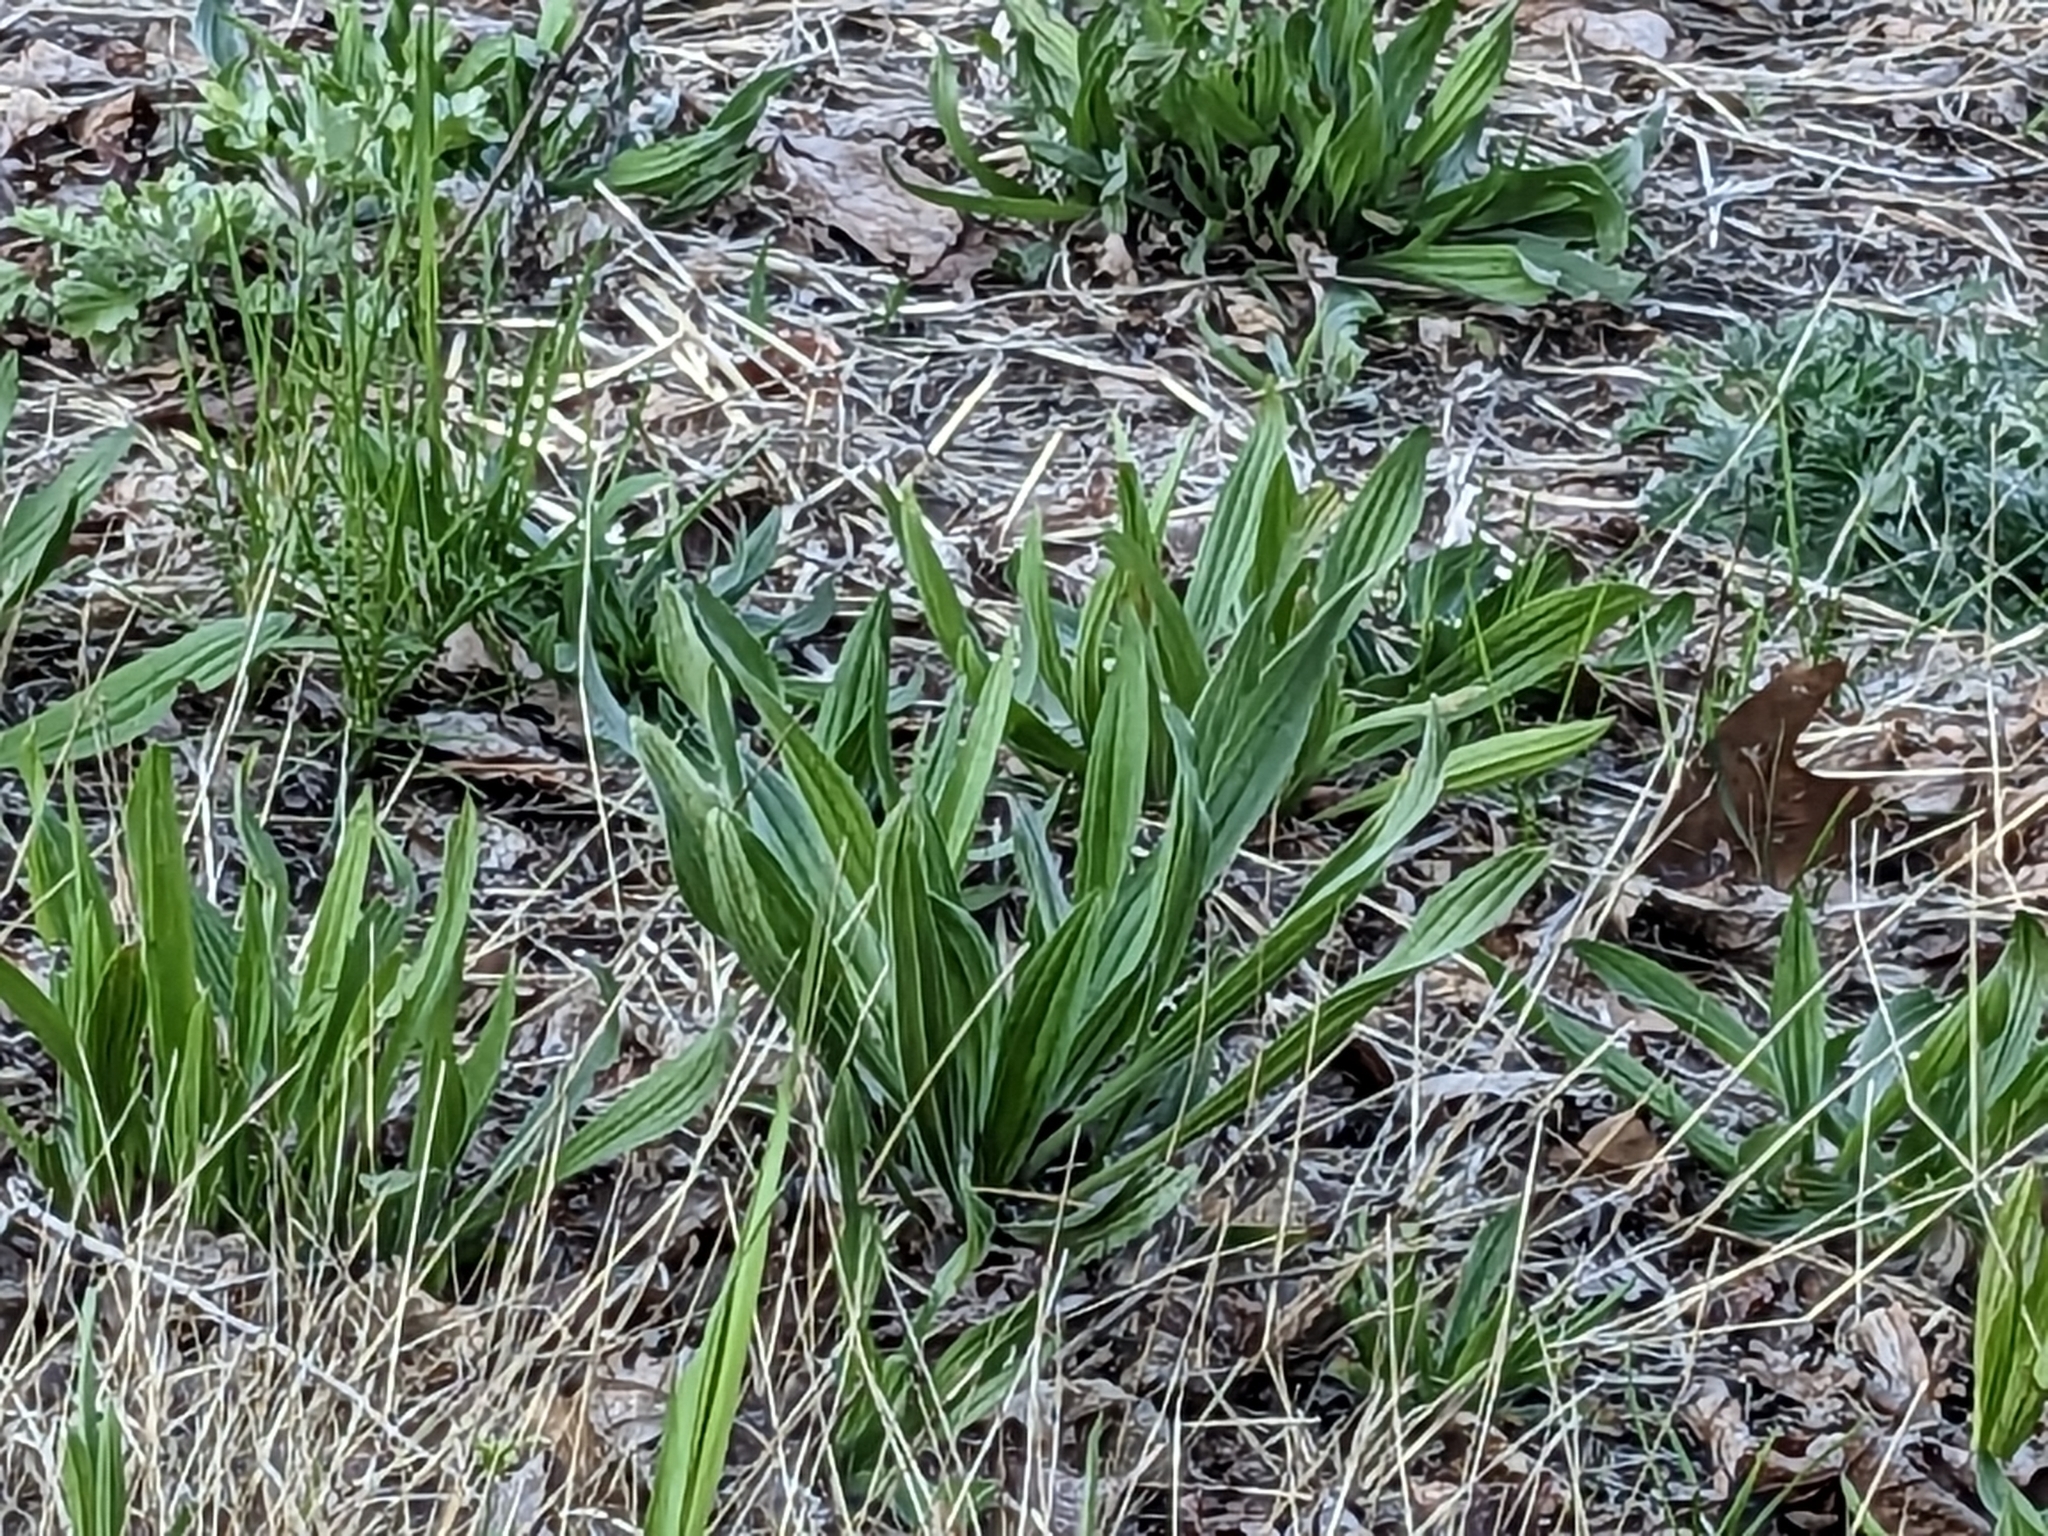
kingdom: Plantae
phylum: Tracheophyta
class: Magnoliopsida
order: Lamiales
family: Plantaginaceae
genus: Plantago
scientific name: Plantago lanceolata
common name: Ribwort plantain
